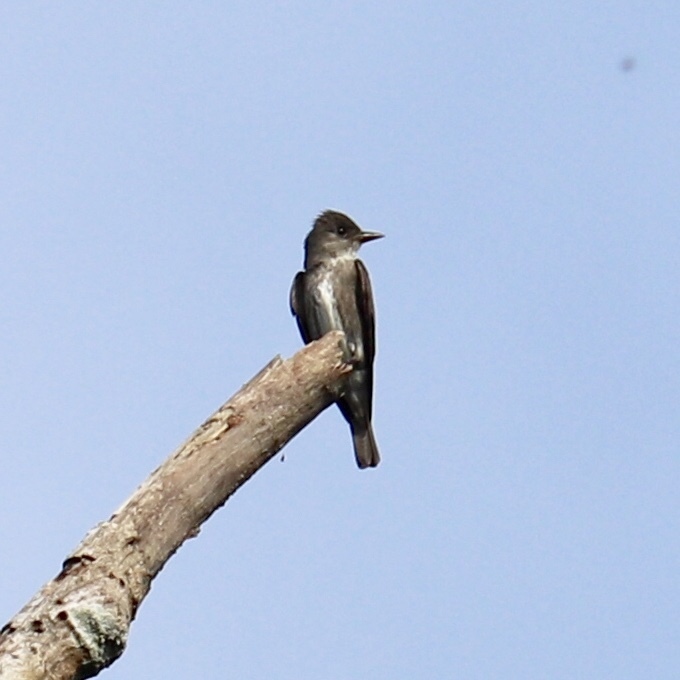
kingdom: Animalia
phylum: Chordata
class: Aves
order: Passeriformes
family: Tyrannidae
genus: Contopus
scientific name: Contopus cooperi
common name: Olive-sided flycatcher
